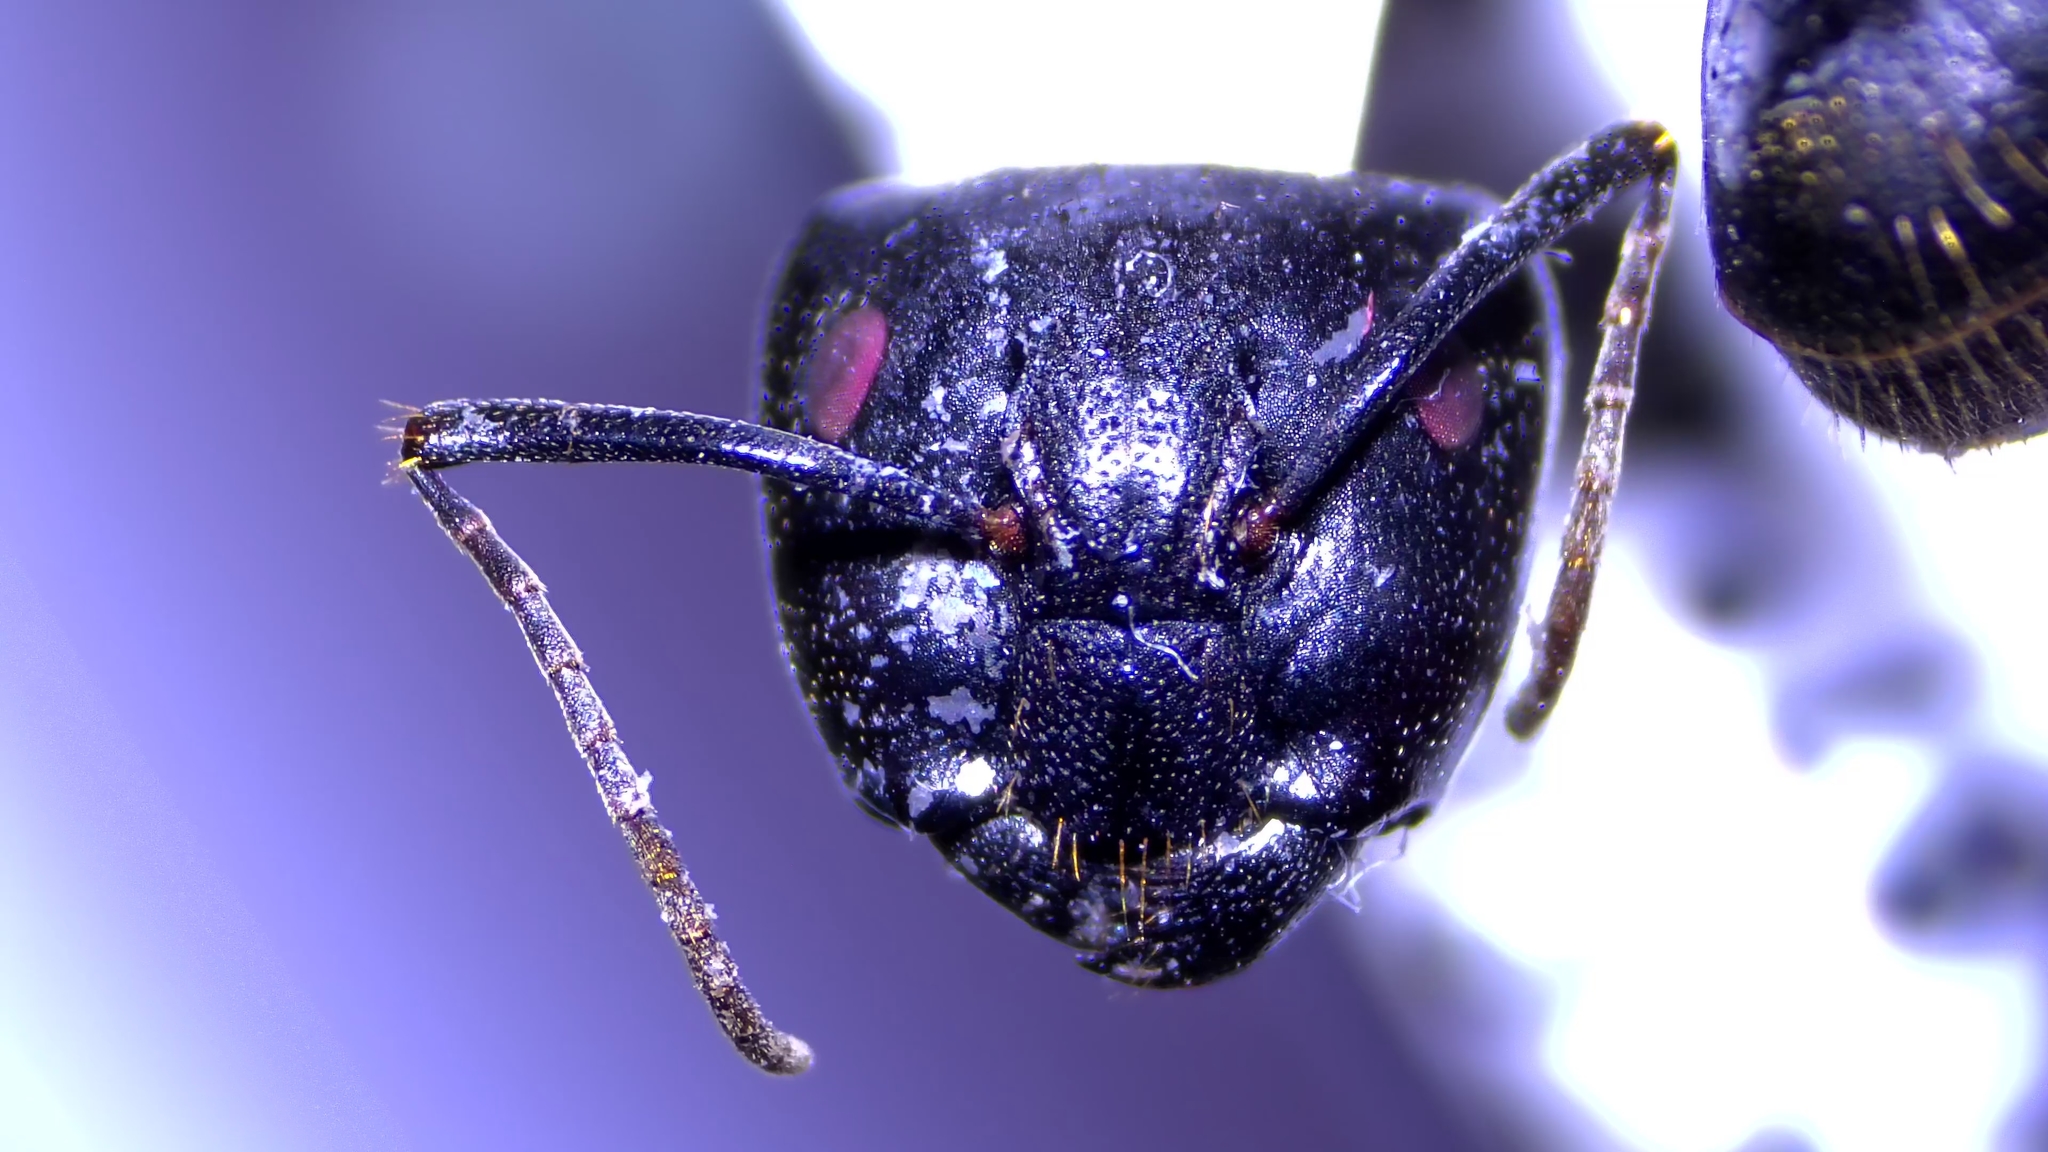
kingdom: Animalia
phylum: Arthropoda
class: Insecta
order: Hymenoptera
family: Formicidae
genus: Camponotus
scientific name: Camponotus pennsylvanicus
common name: Black carpenter ant
